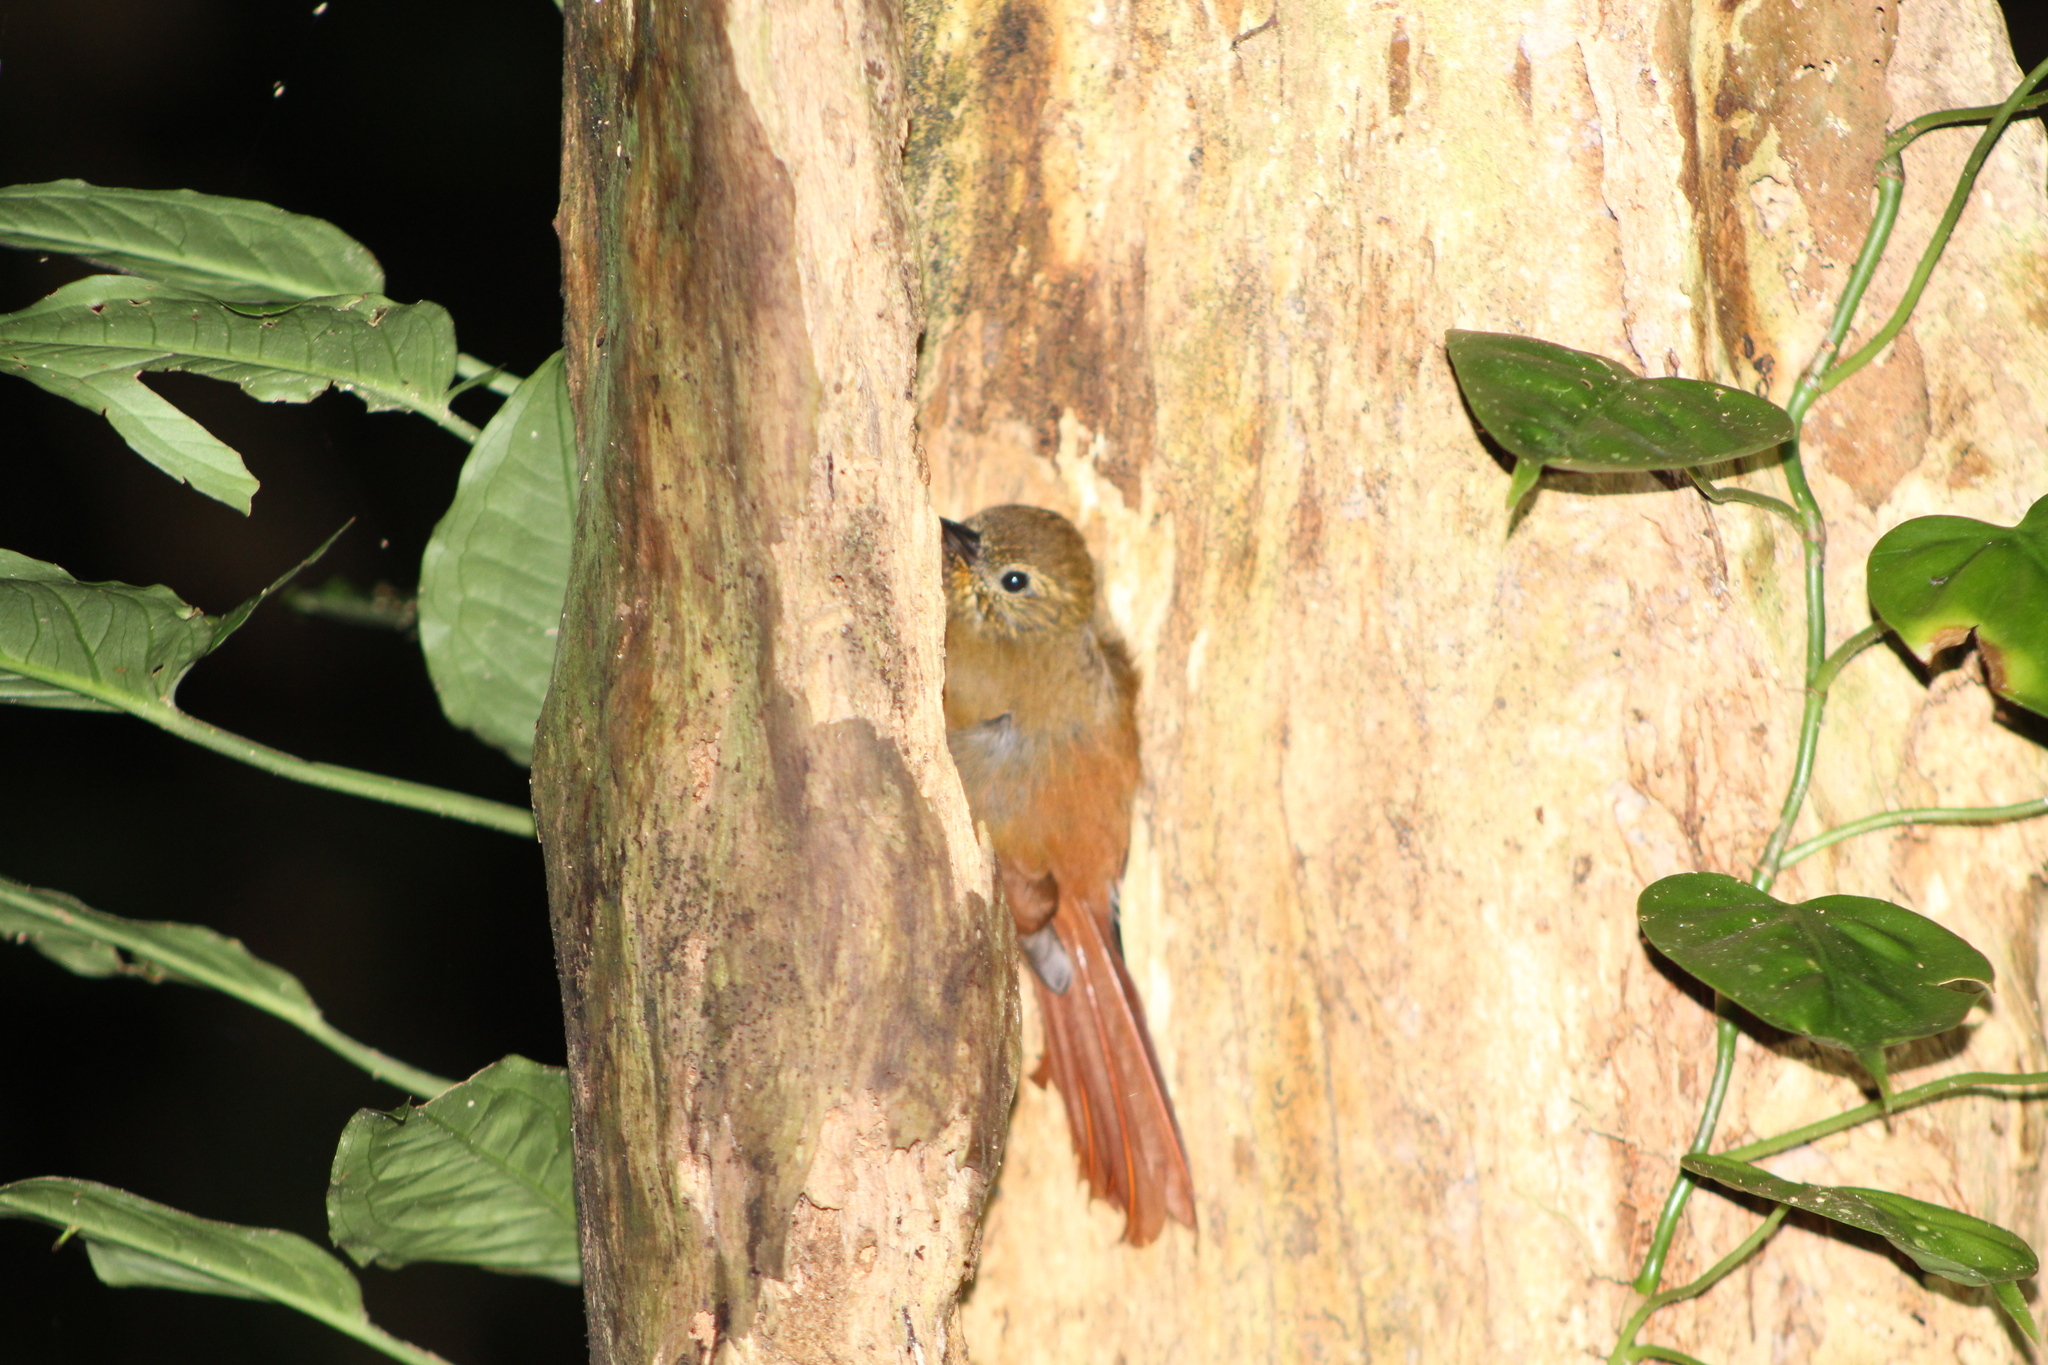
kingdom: Animalia
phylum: Chordata
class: Aves
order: Passeriformes
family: Furnariidae
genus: Glyphorynchus
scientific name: Glyphorynchus spirurus
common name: Wedge-billed woodcreeper
